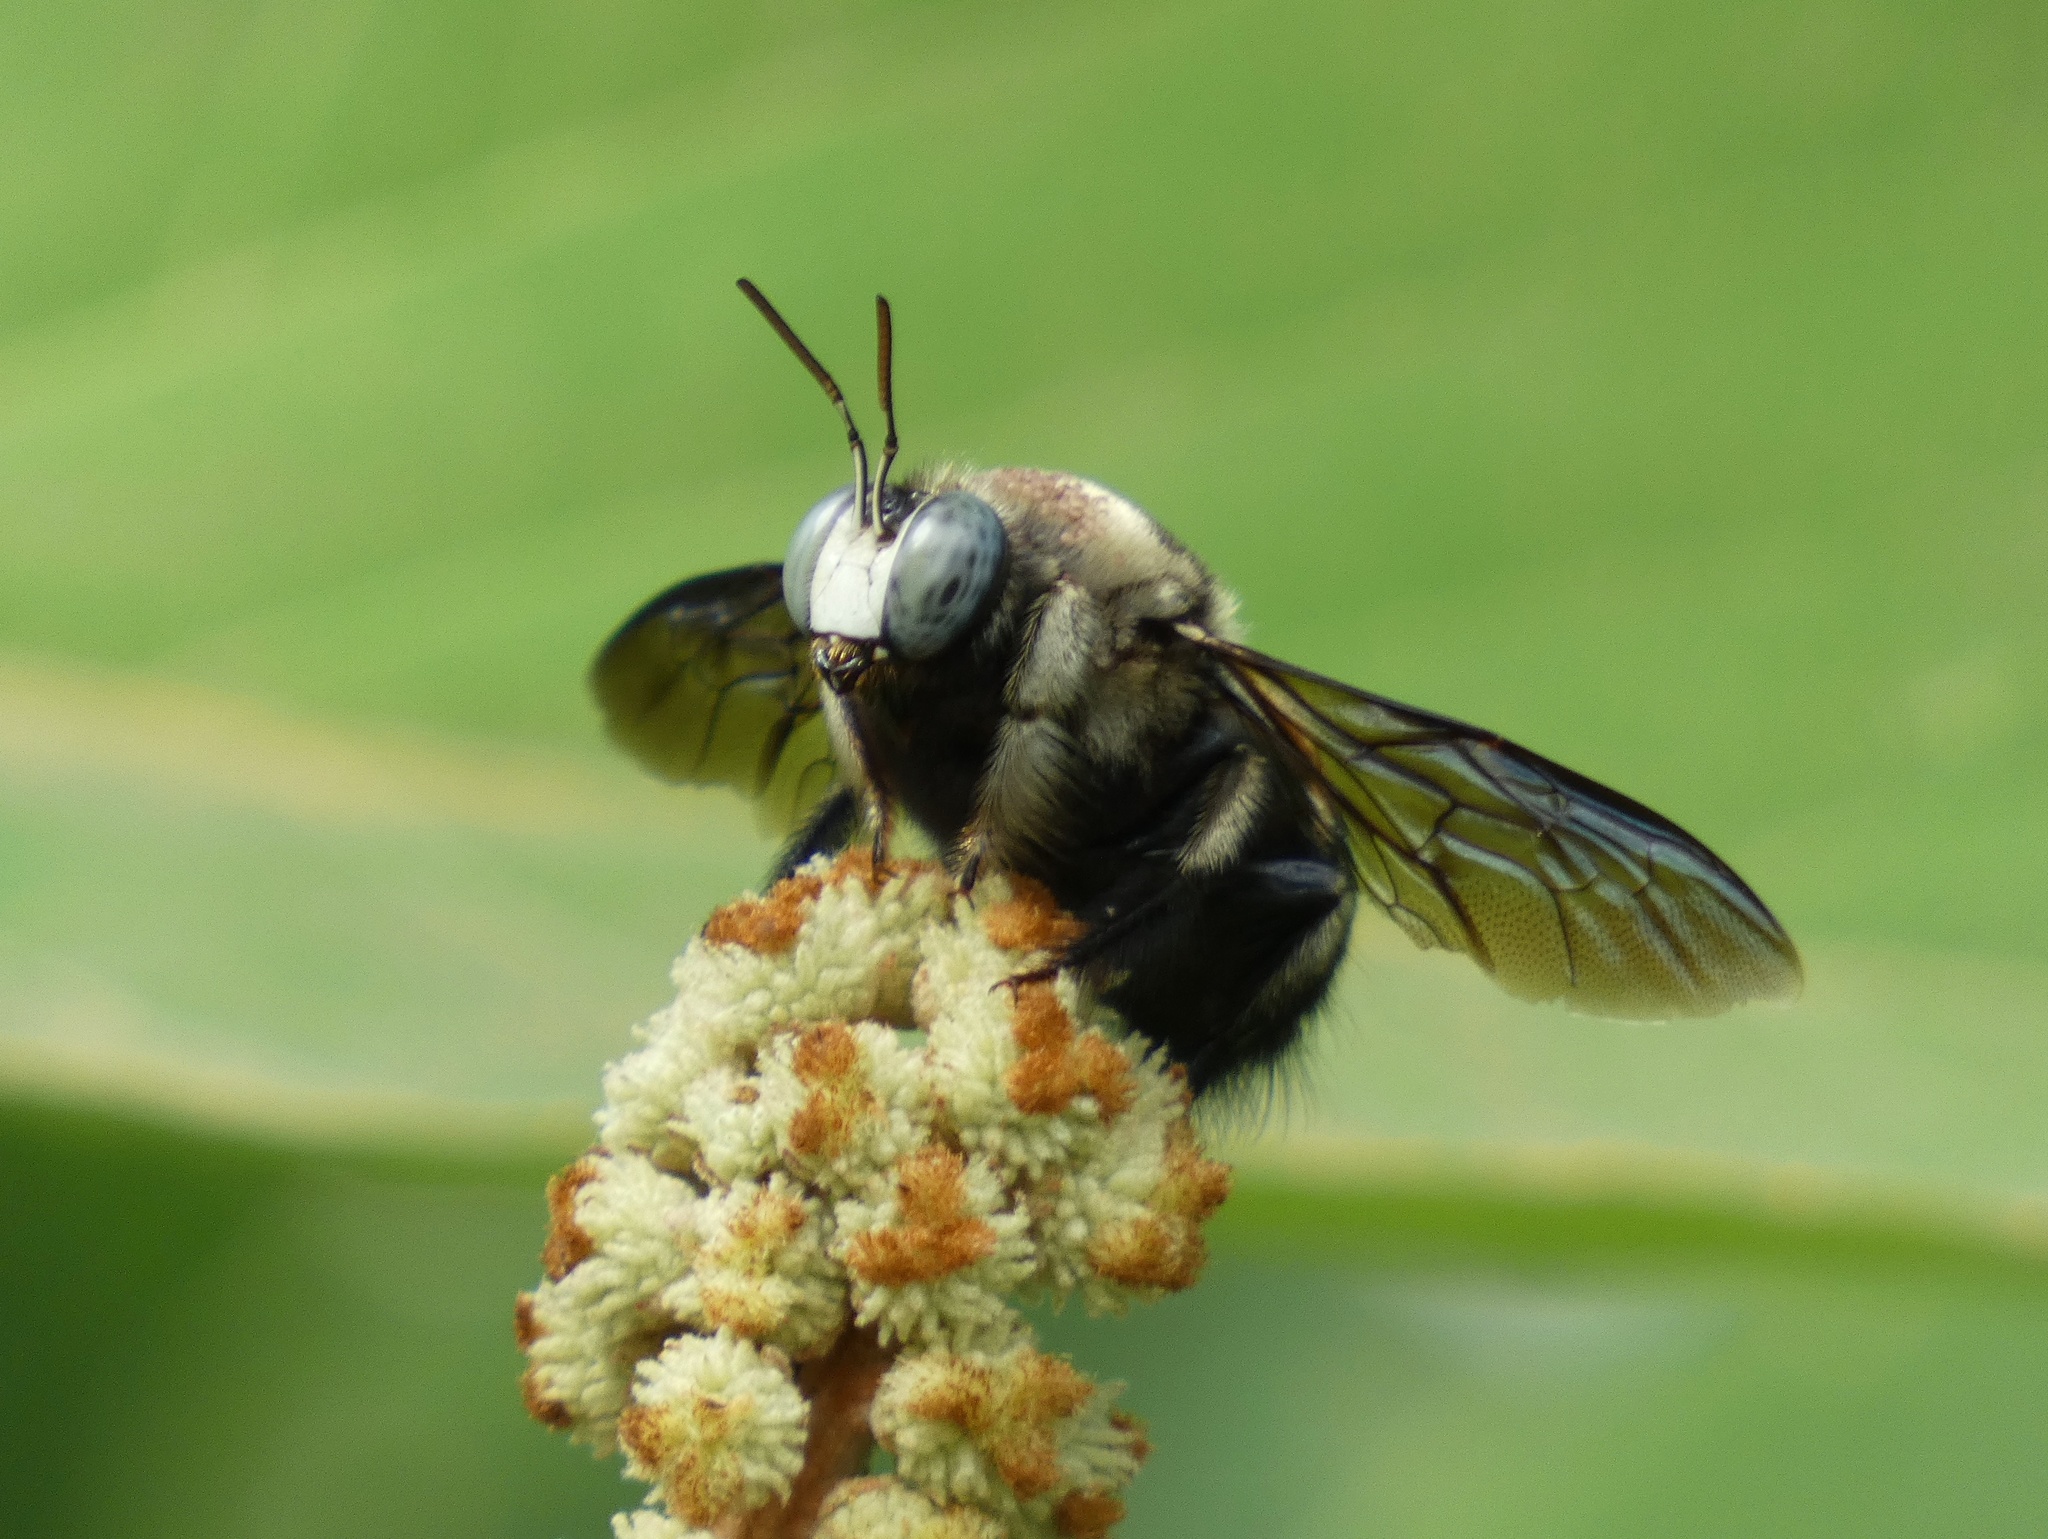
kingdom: Animalia
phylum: Arthropoda
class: Insecta
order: Hymenoptera
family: Apidae
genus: Xylocopa
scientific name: Xylocopa fuliginata
